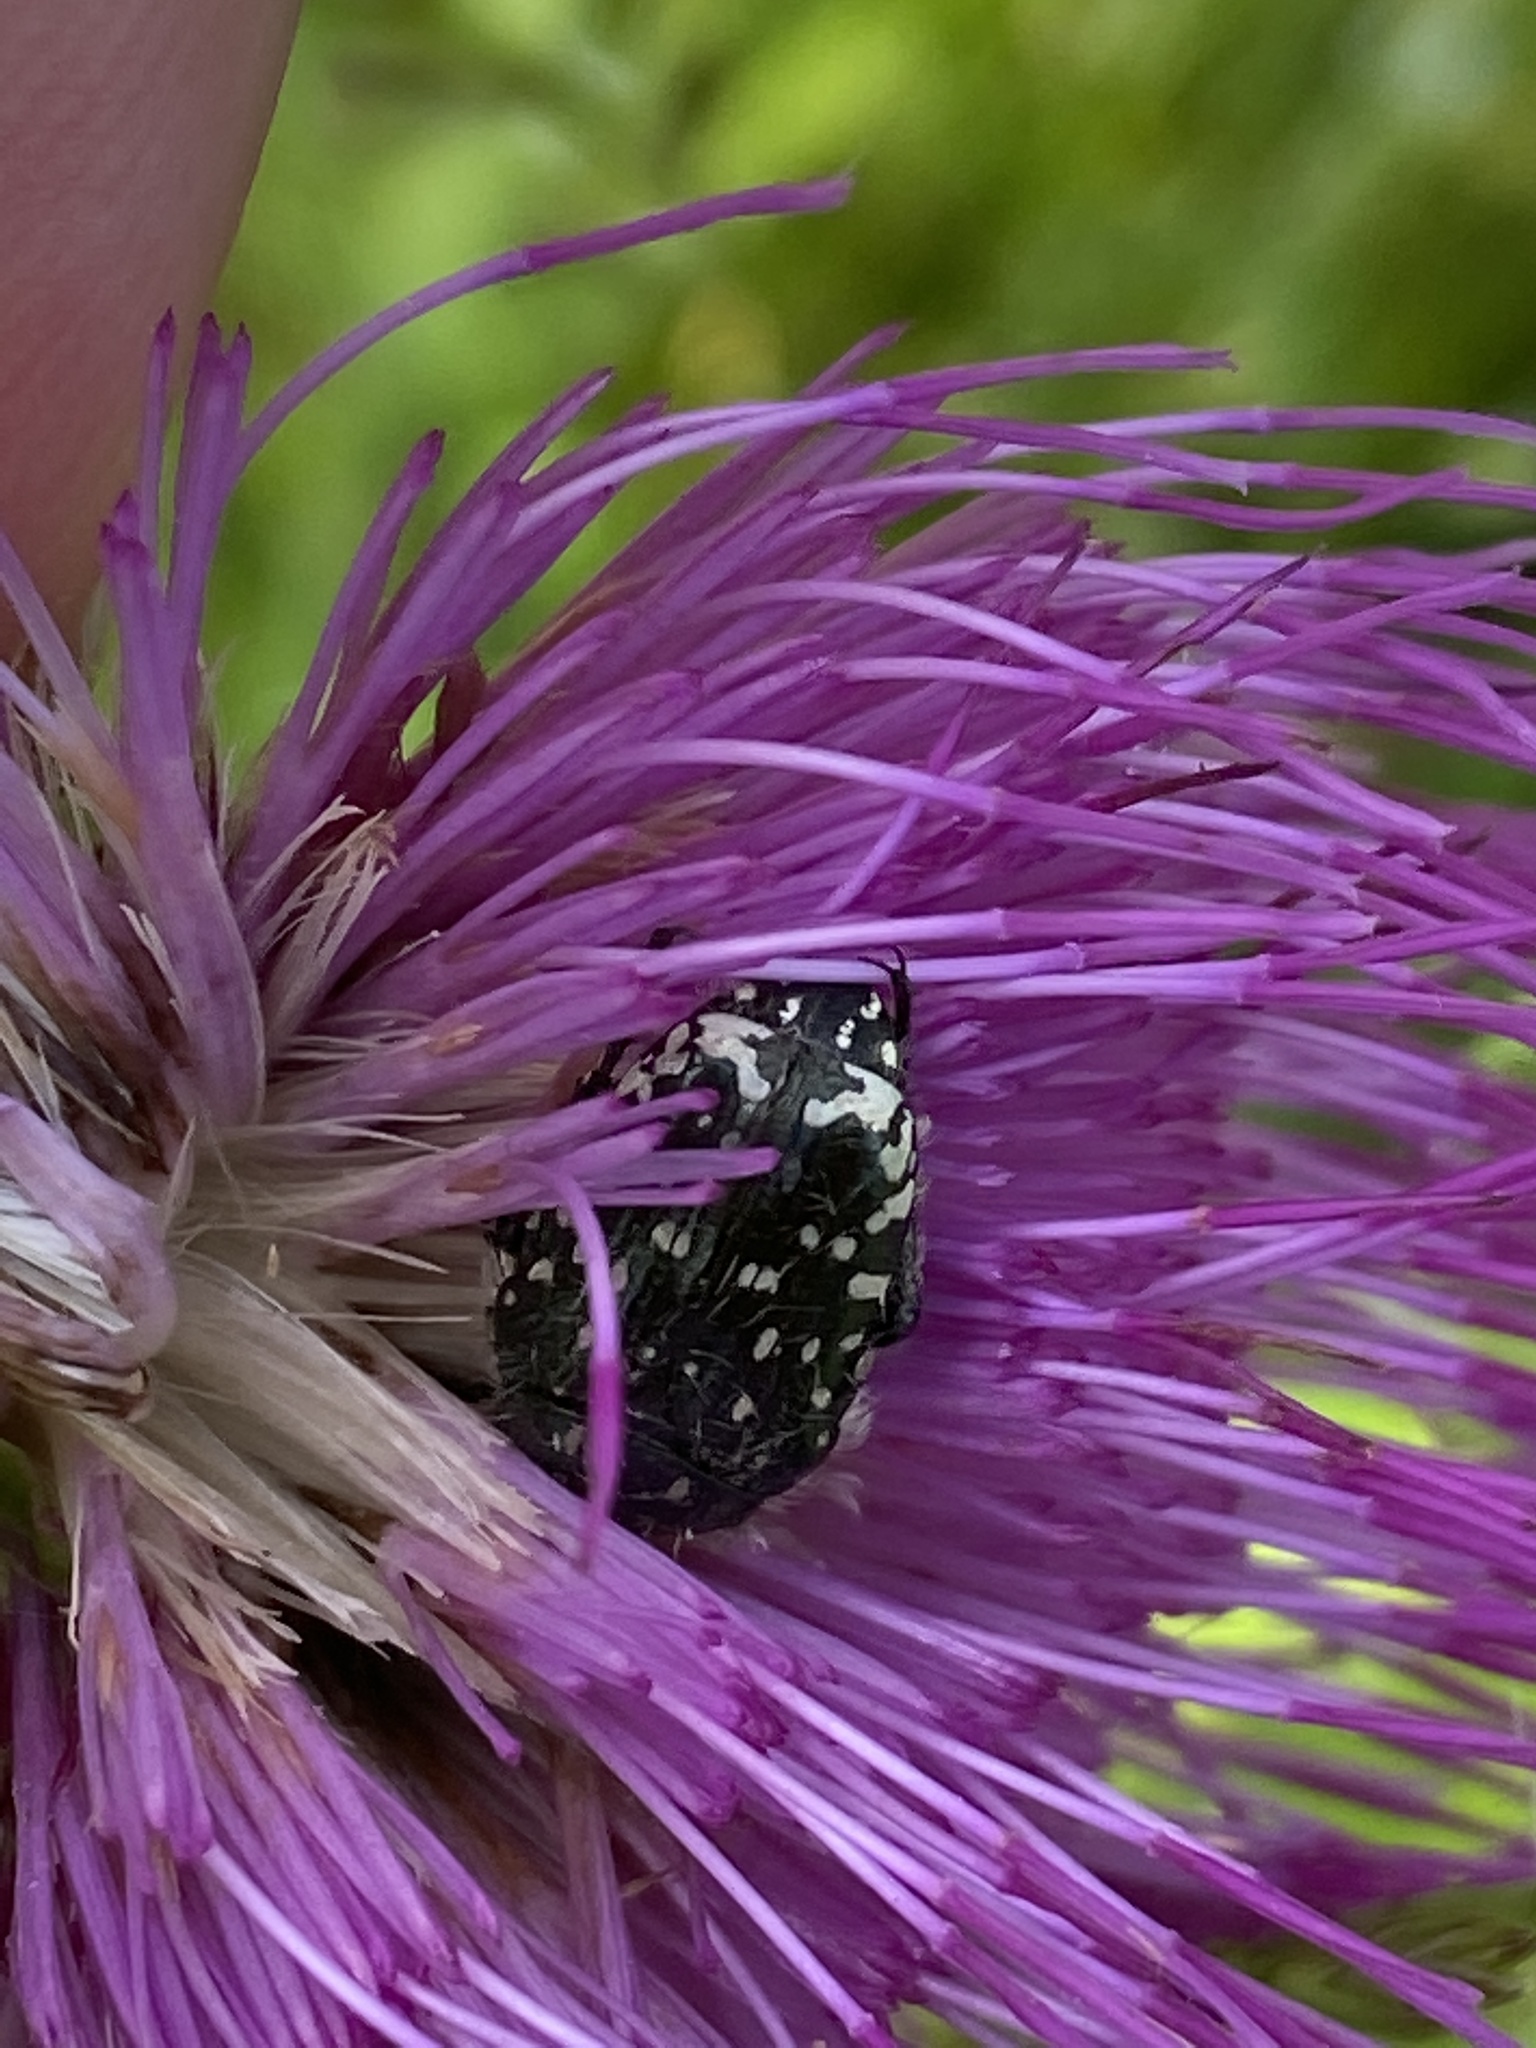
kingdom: Animalia
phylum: Arthropoda
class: Insecta
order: Coleoptera
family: Scarabaeidae
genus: Oxythyrea
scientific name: Oxythyrea funesta
